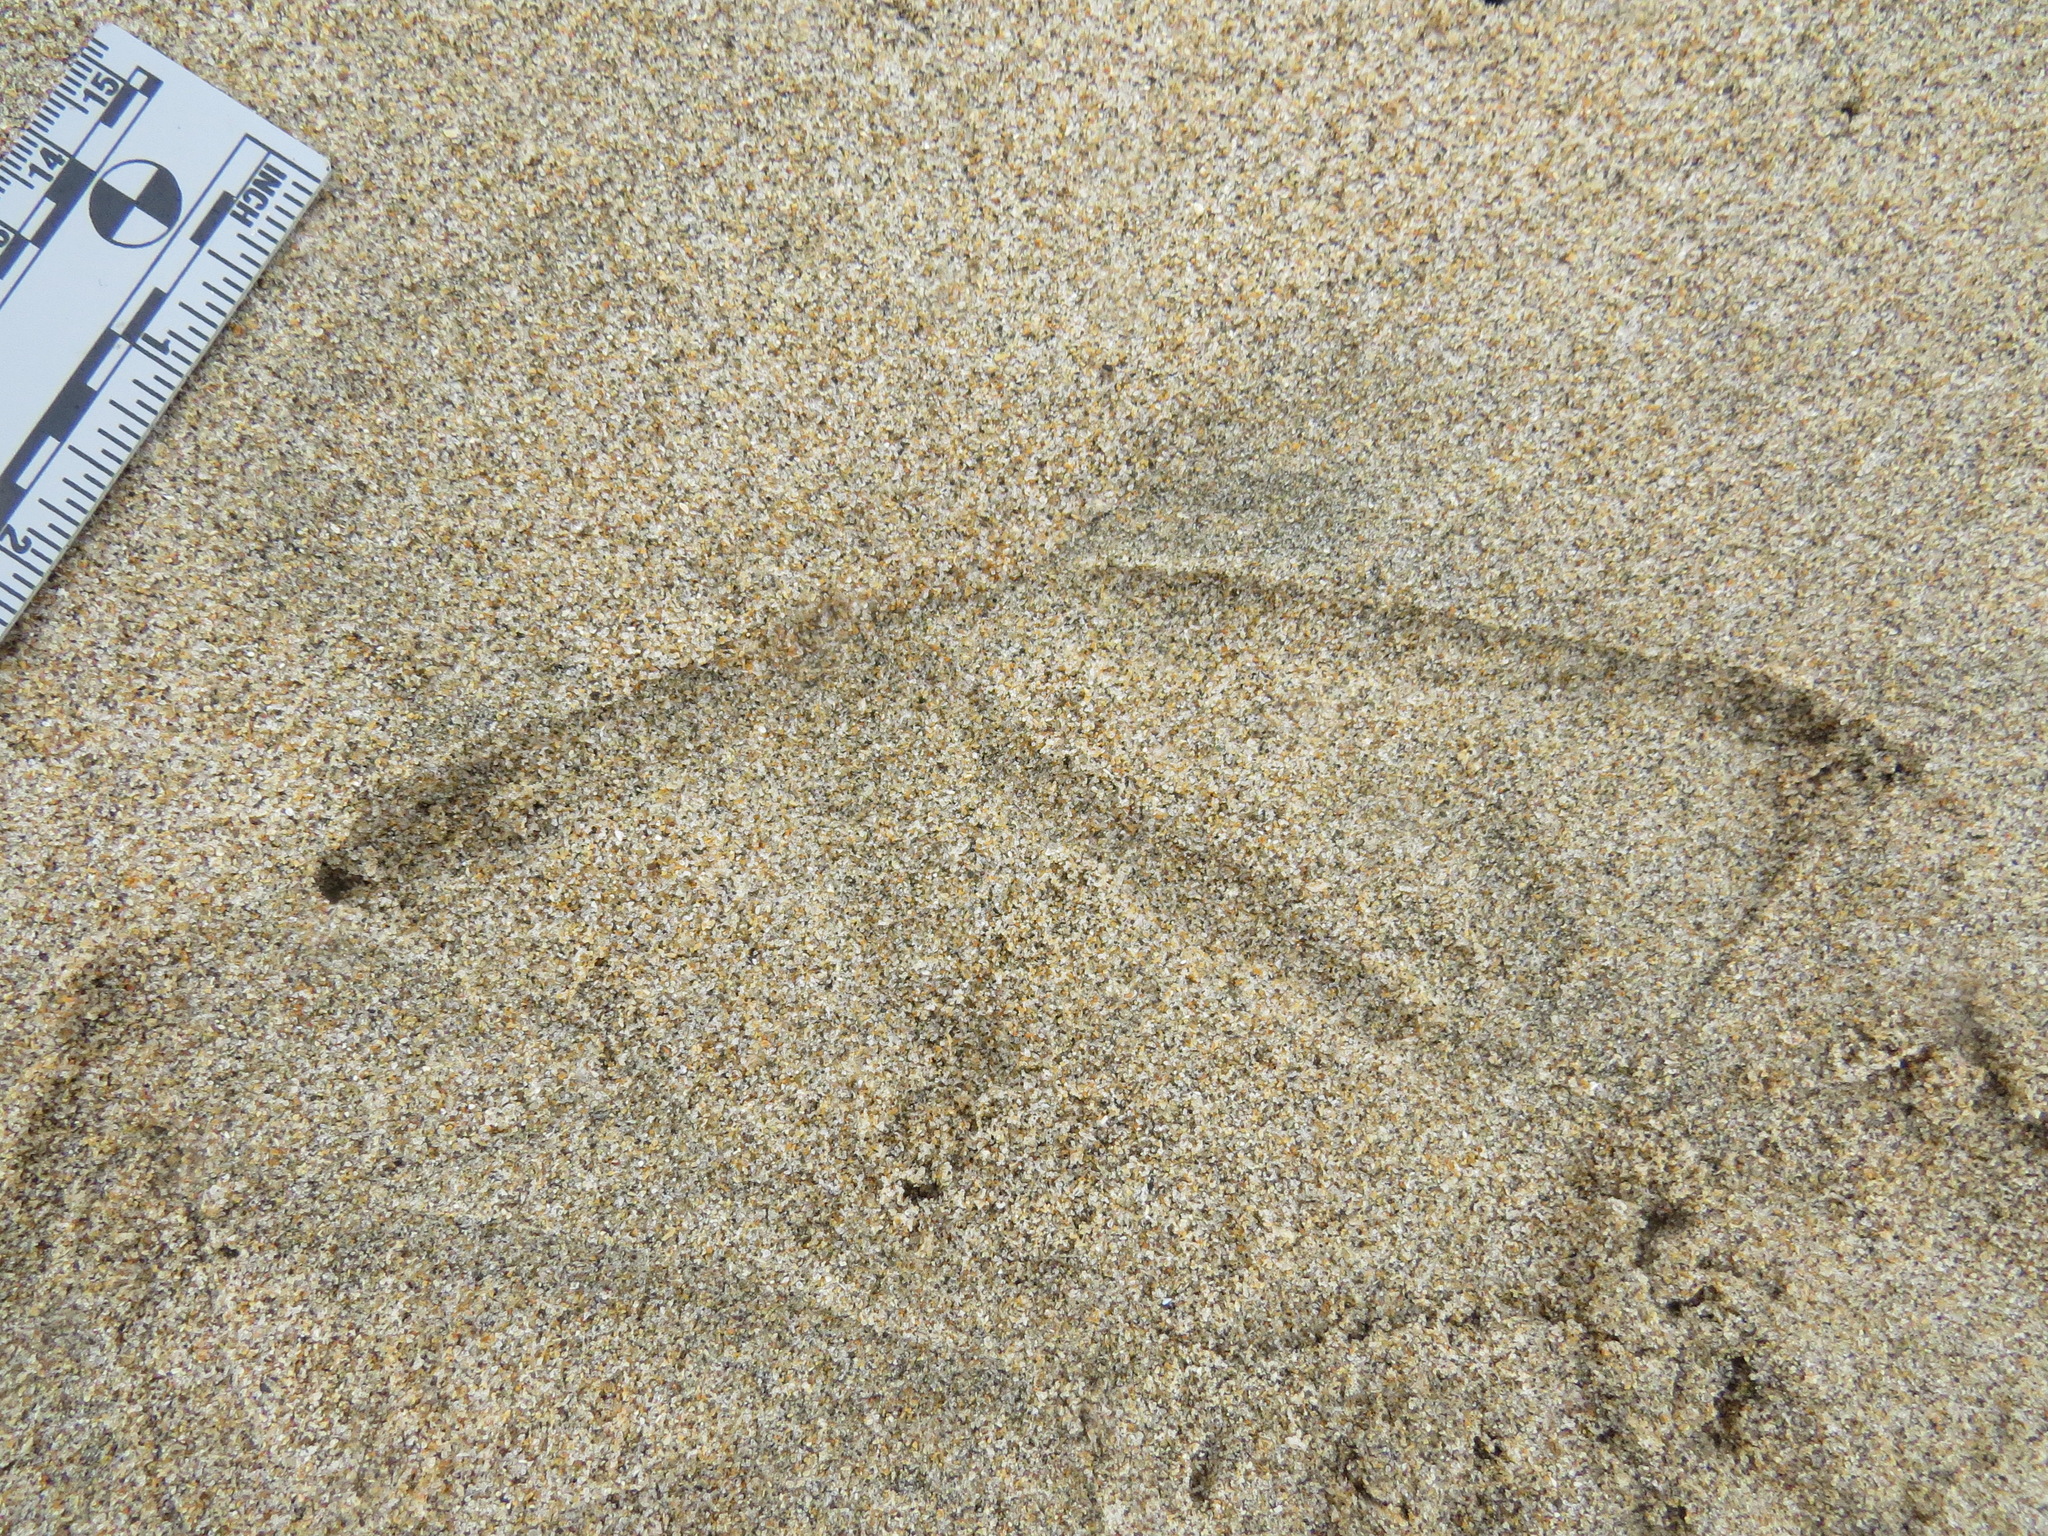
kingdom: Animalia
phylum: Chordata
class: Aves
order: Pelecaniformes
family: Pelecanidae
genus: Pelecanus
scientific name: Pelecanus occidentalis
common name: Brown pelican
